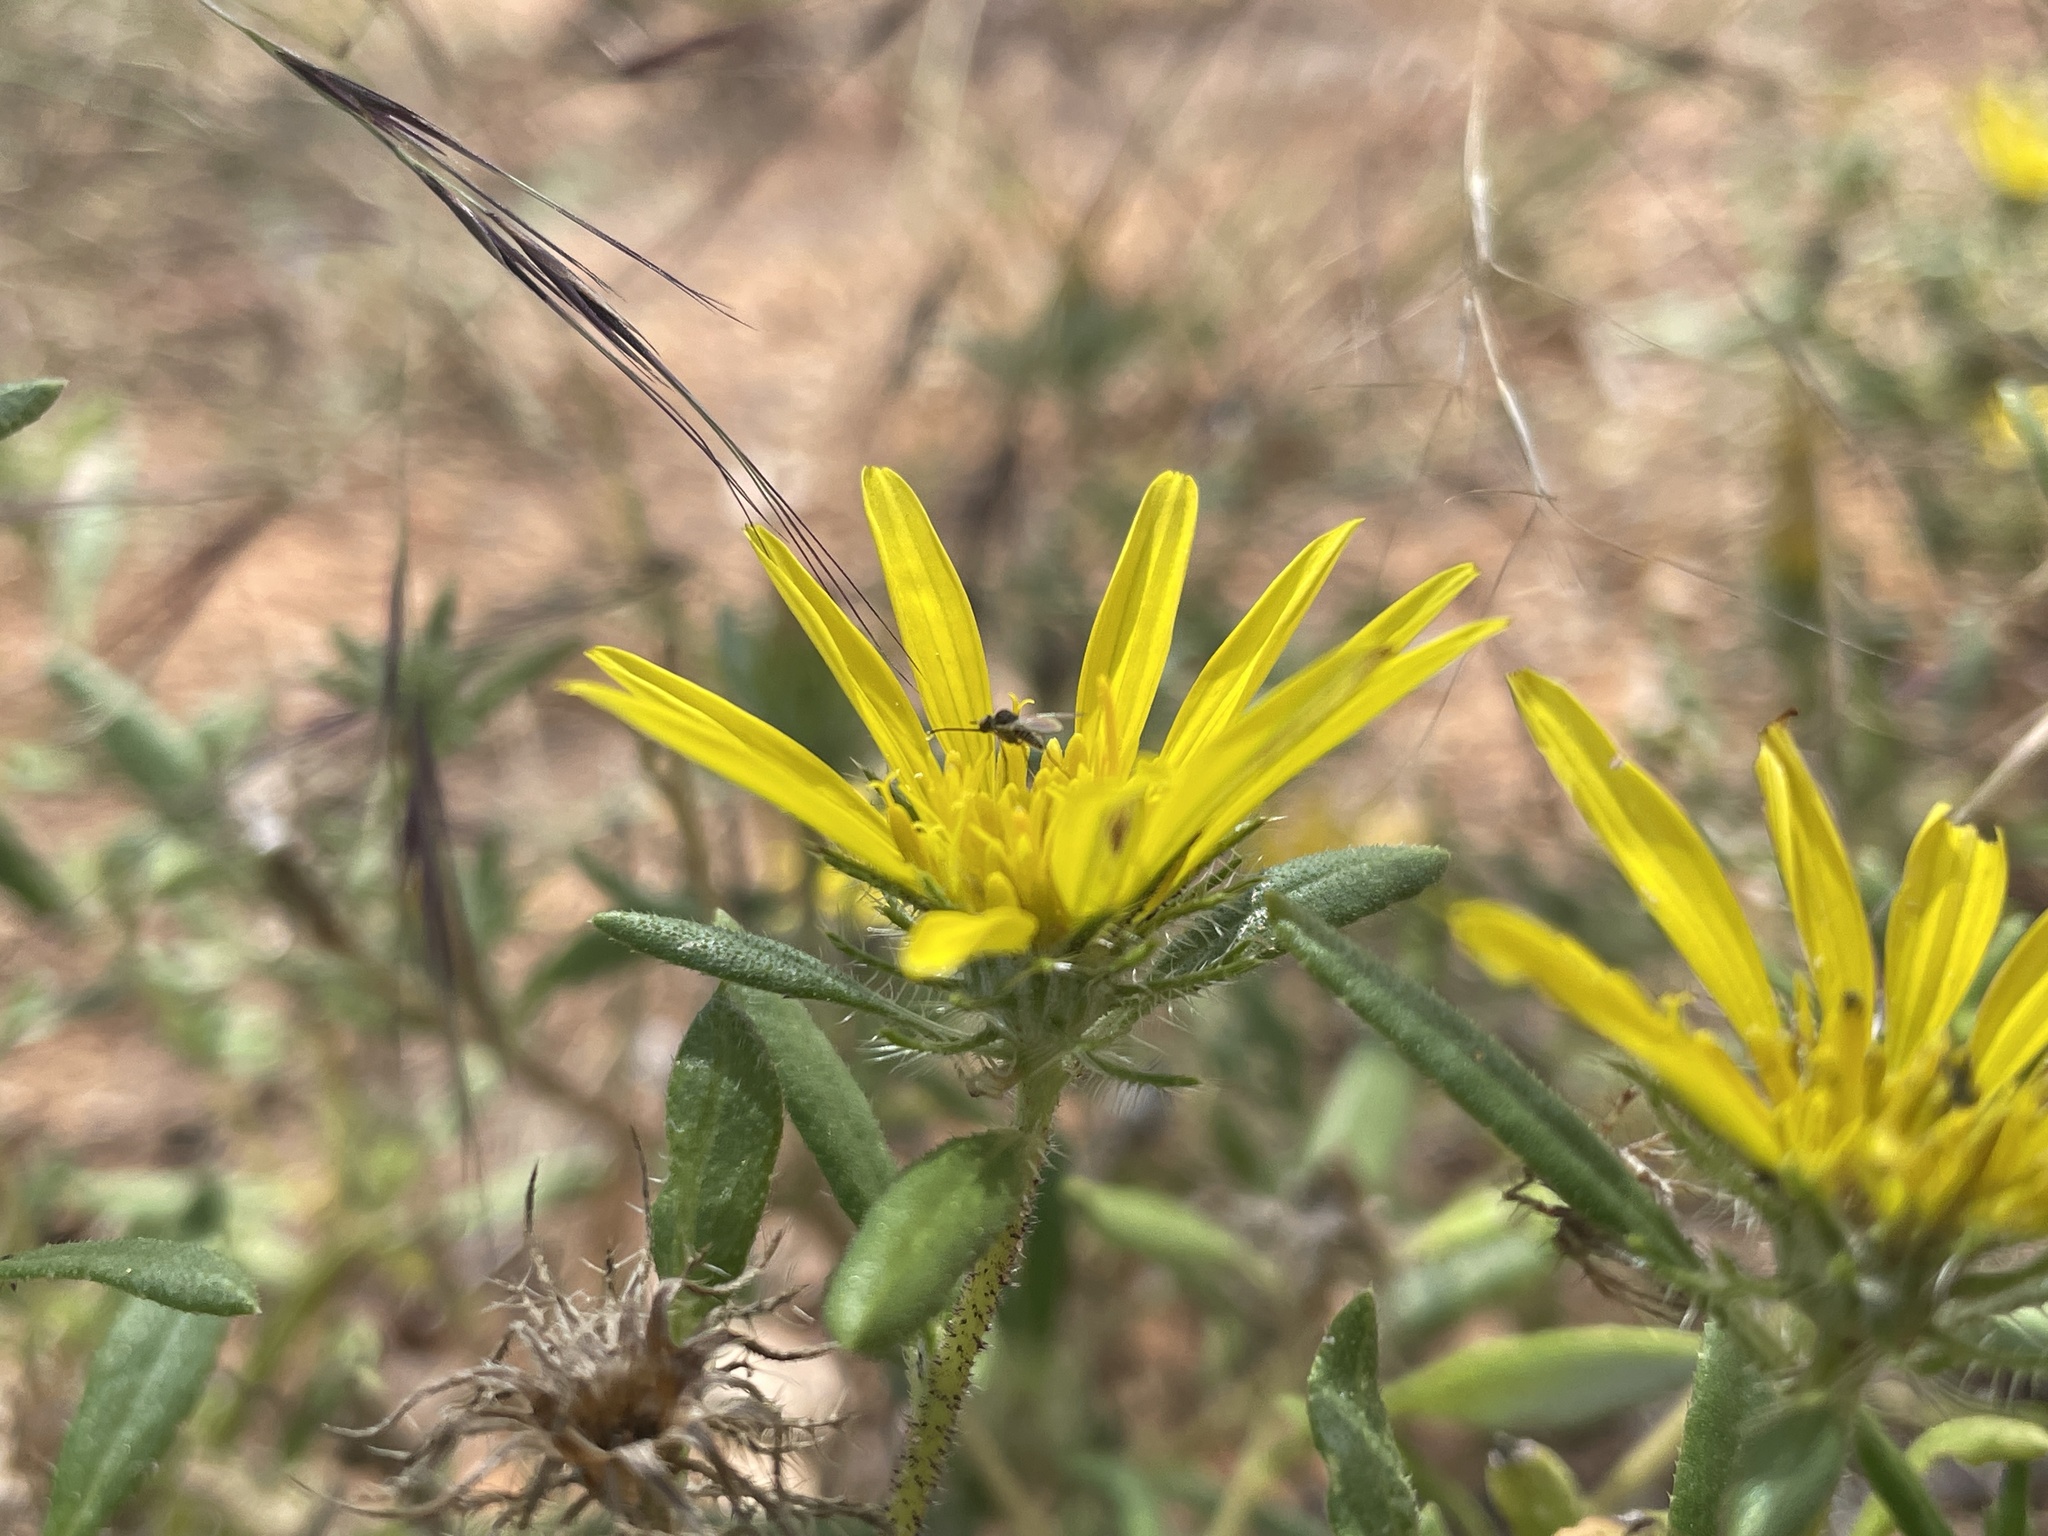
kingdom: Plantae
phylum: Tracheophyta
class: Magnoliopsida
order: Asterales
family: Asteraceae
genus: Roessleria
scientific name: Roessleria gorterioides
